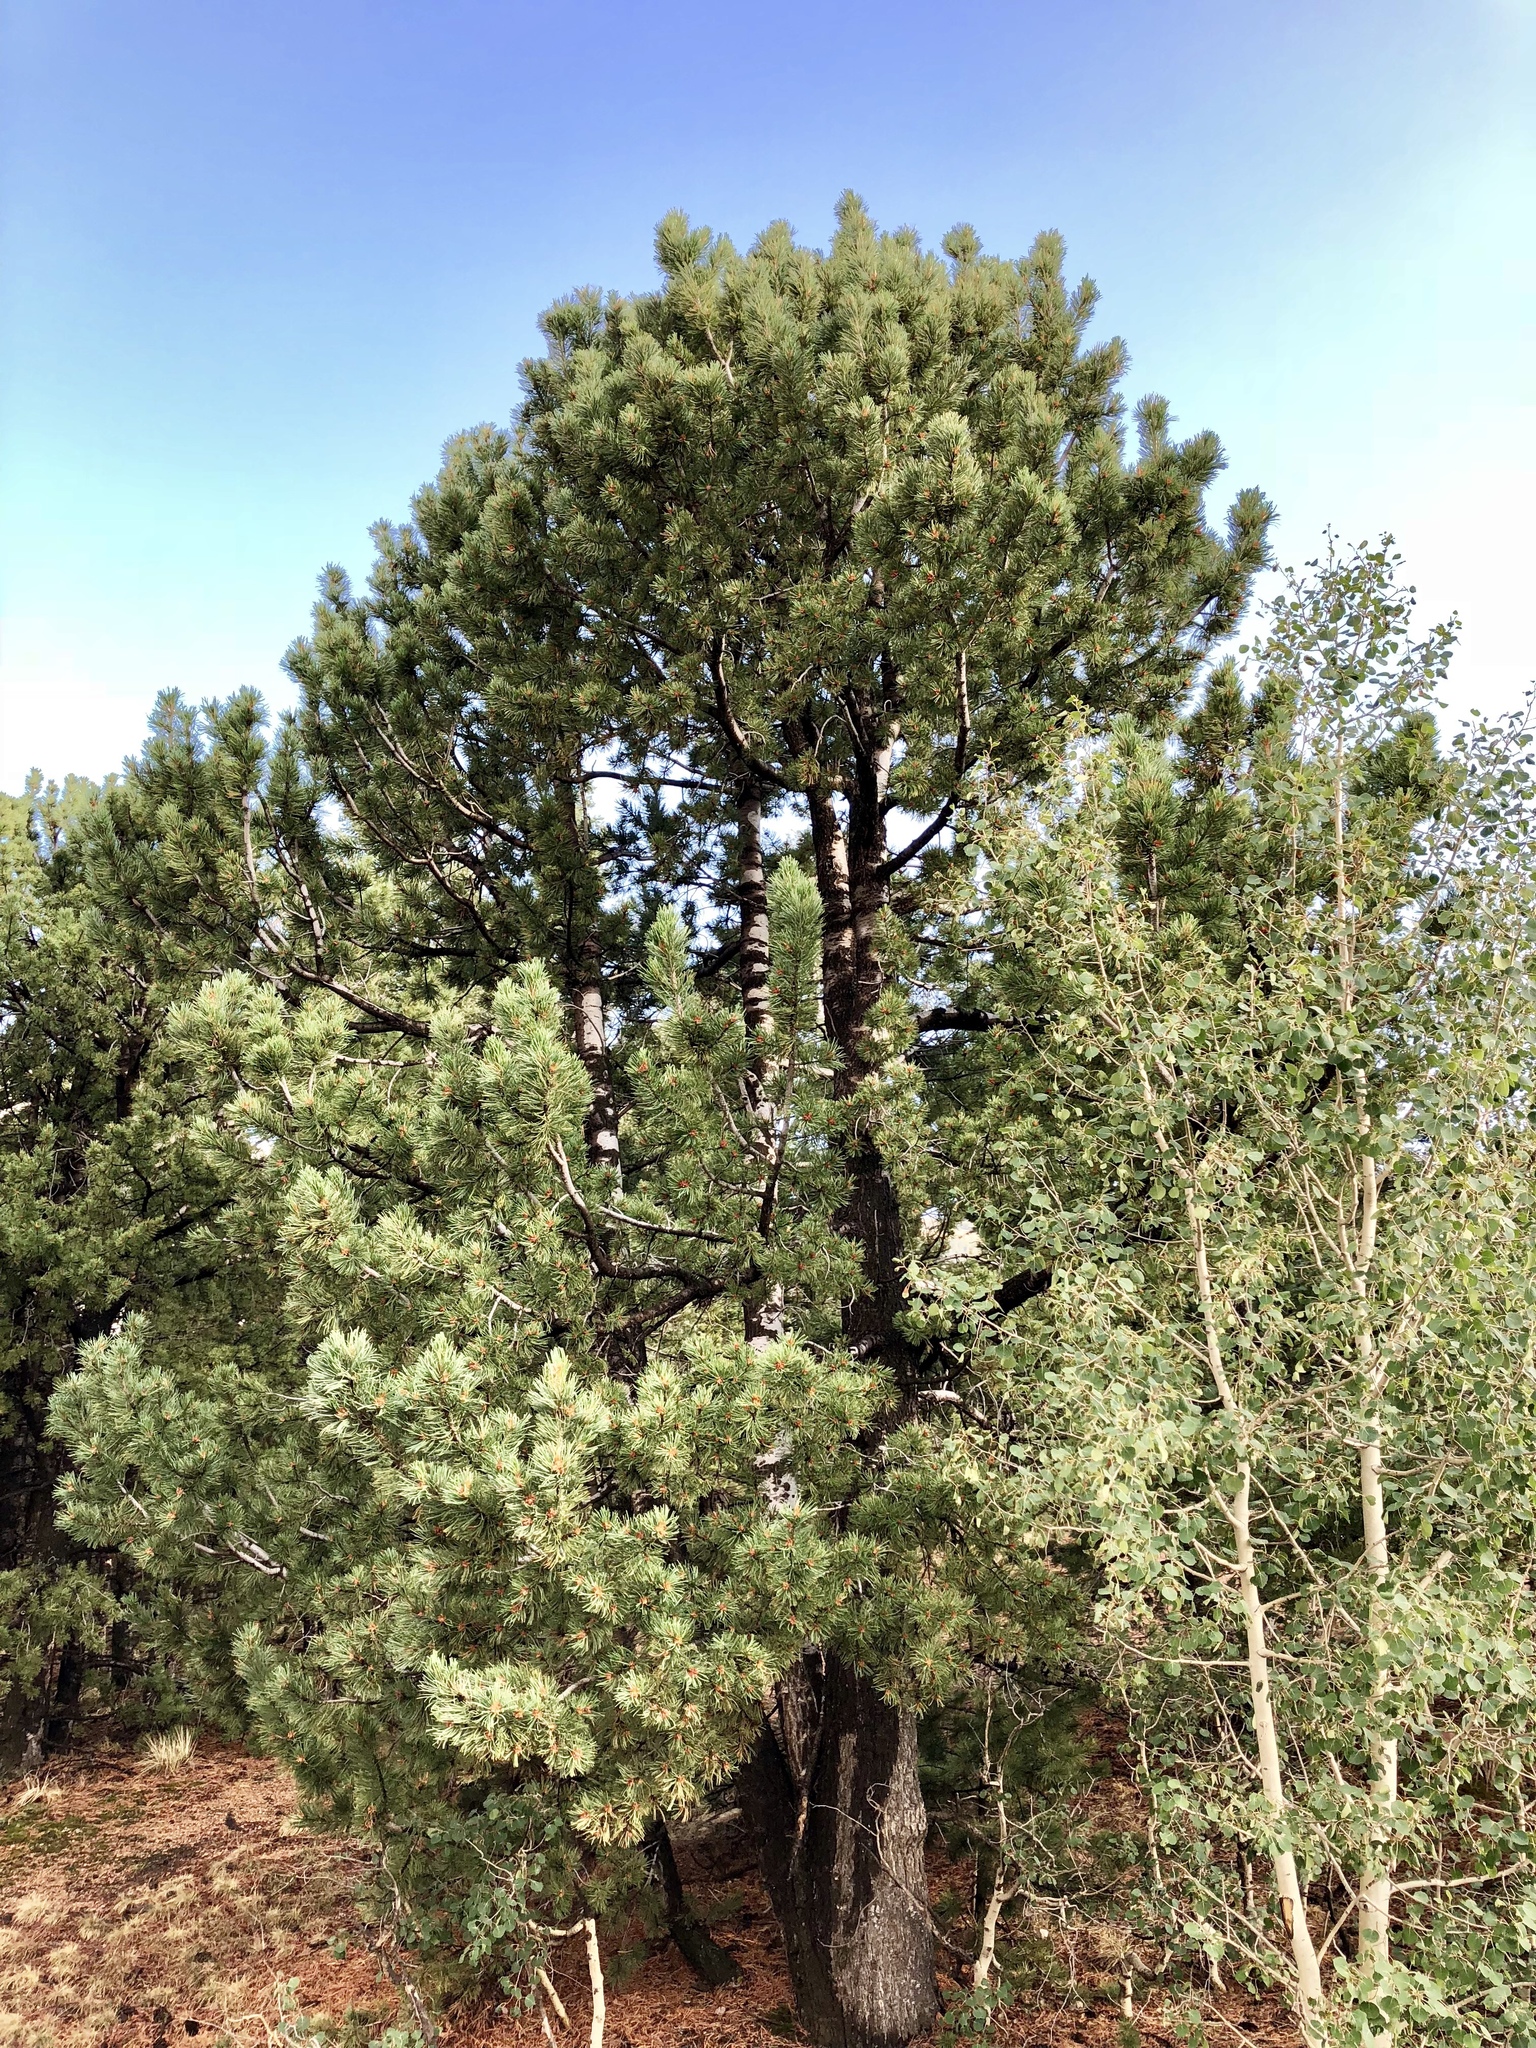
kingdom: Plantae
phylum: Tracheophyta
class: Pinopsida
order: Pinales
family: Pinaceae
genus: Pinus
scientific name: Pinus flexilis
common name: Limber pine
